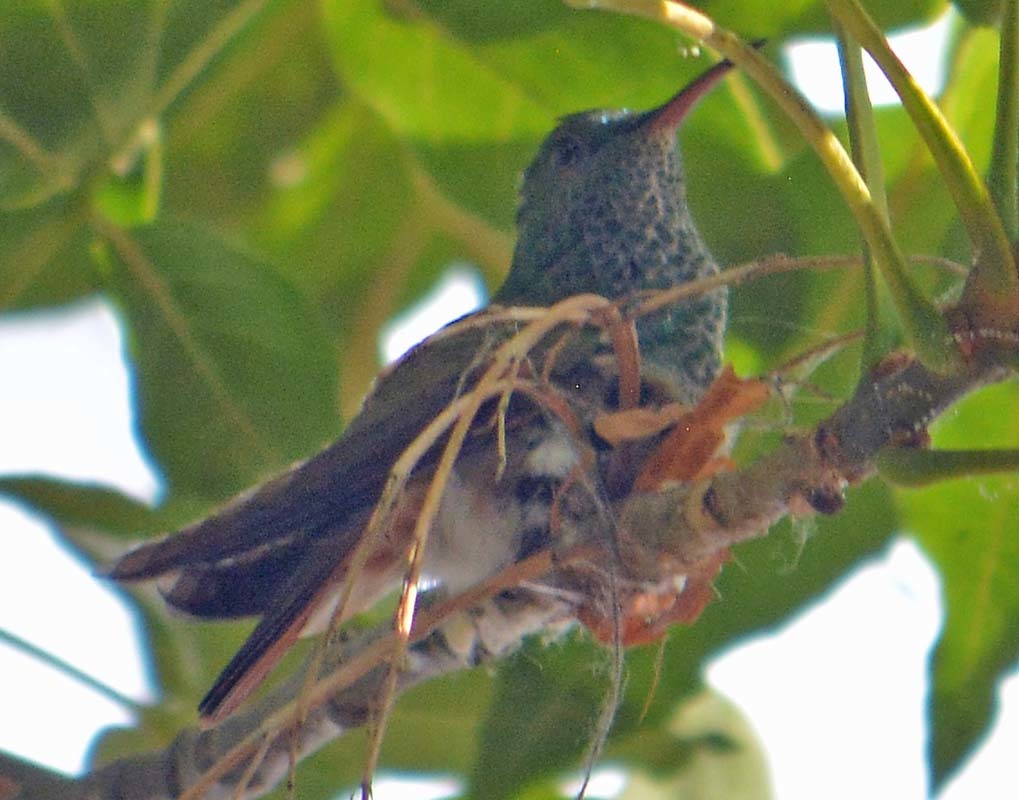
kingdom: Animalia
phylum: Chordata
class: Aves
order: Apodiformes
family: Trochilidae
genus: Cynanthus
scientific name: Cynanthus latirostris
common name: Broad-billed hummingbird
